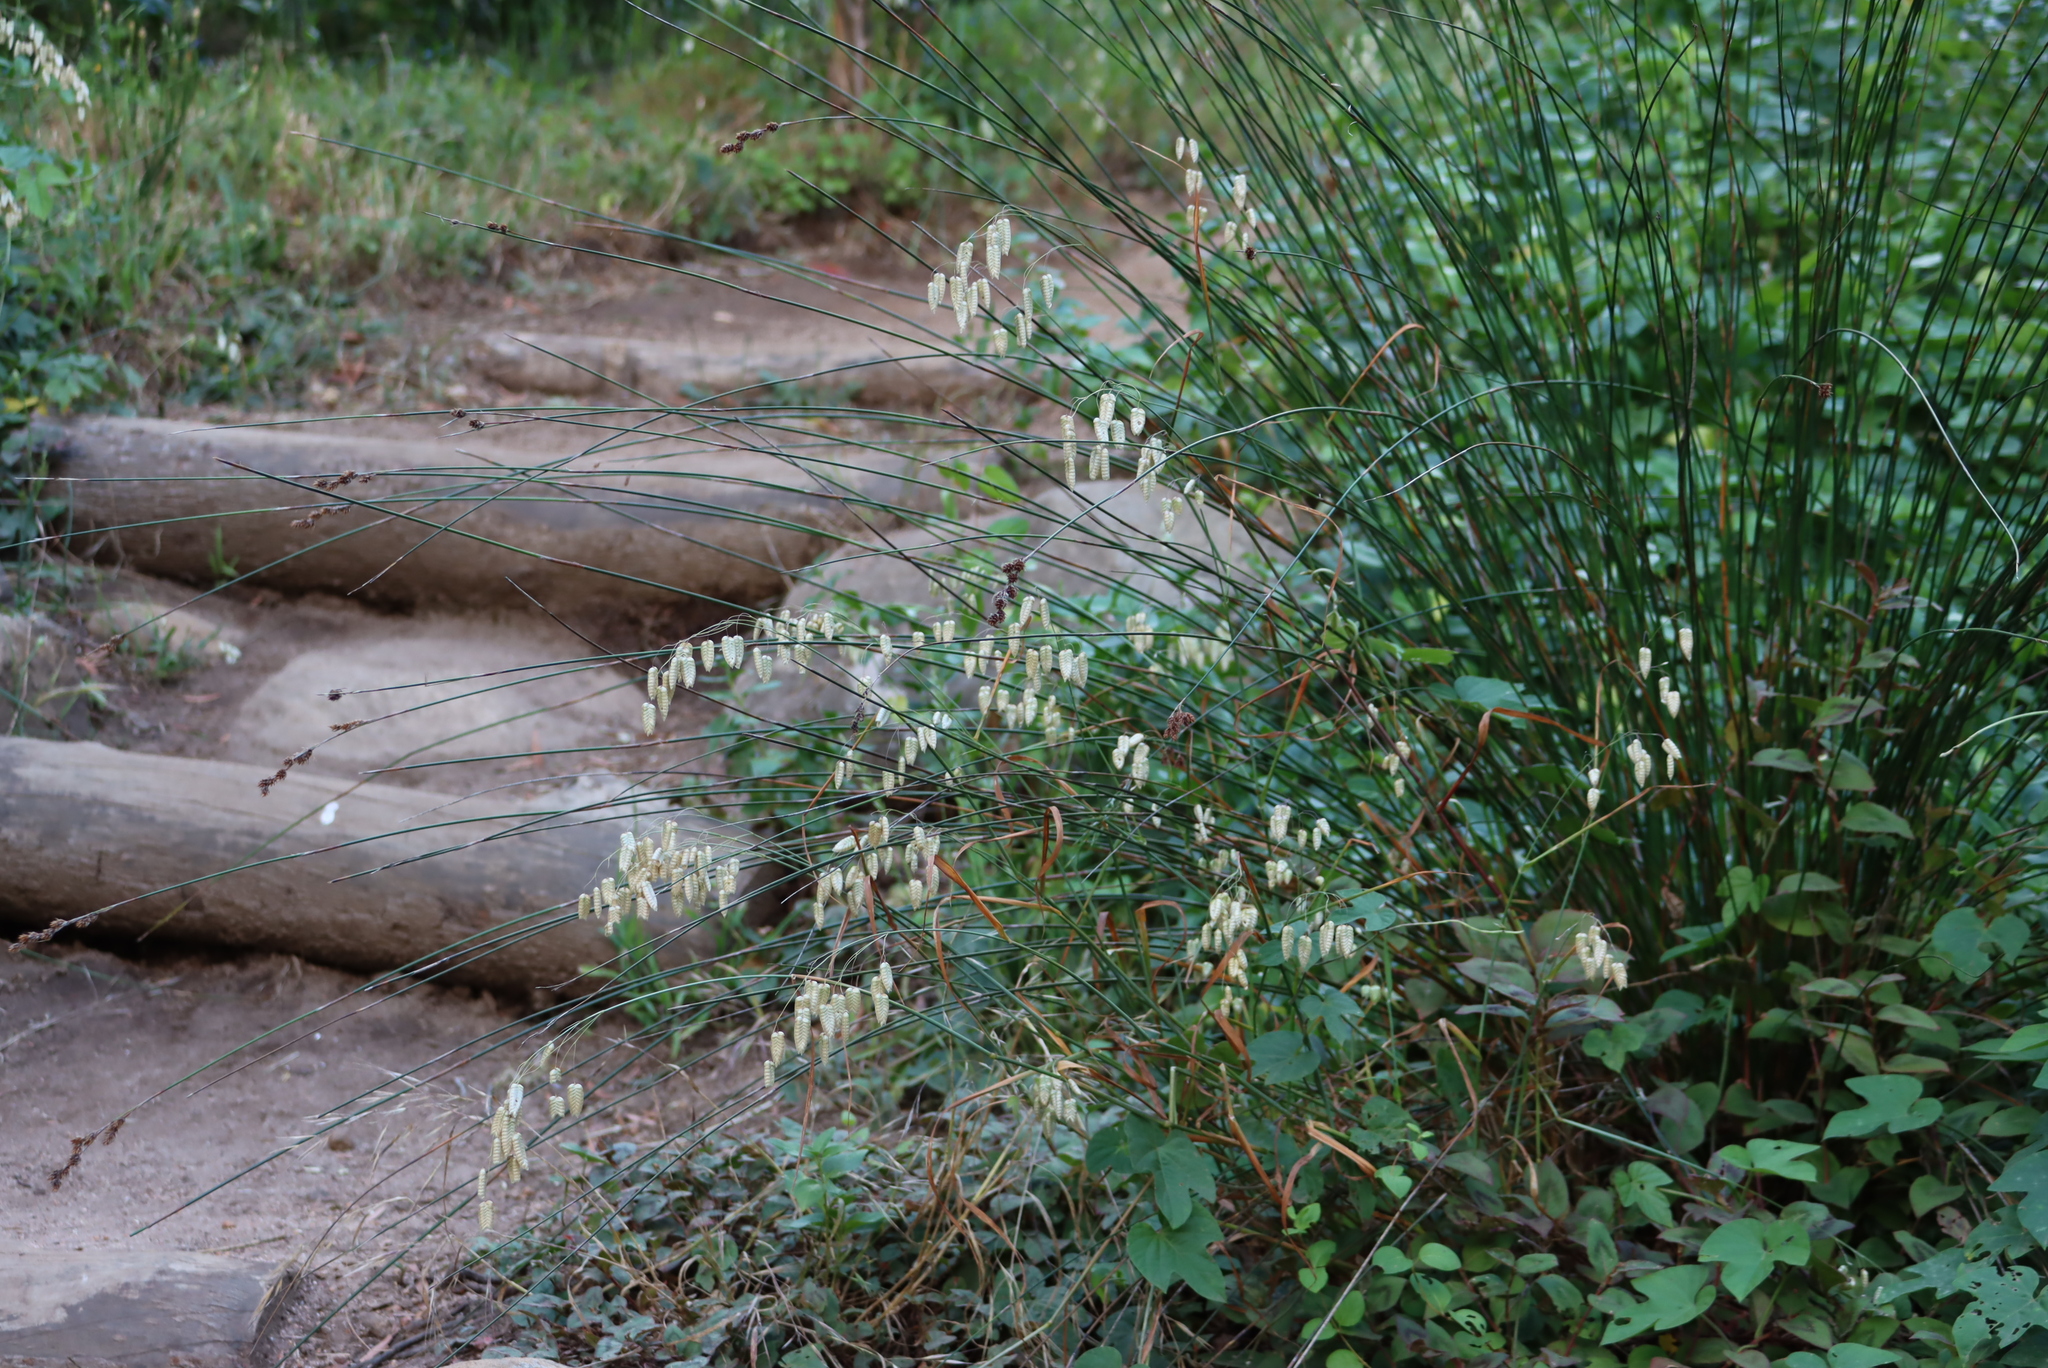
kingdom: Plantae
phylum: Tracheophyta
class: Liliopsida
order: Poales
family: Poaceae
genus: Briza
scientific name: Briza maxima
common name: Big quakinggrass
